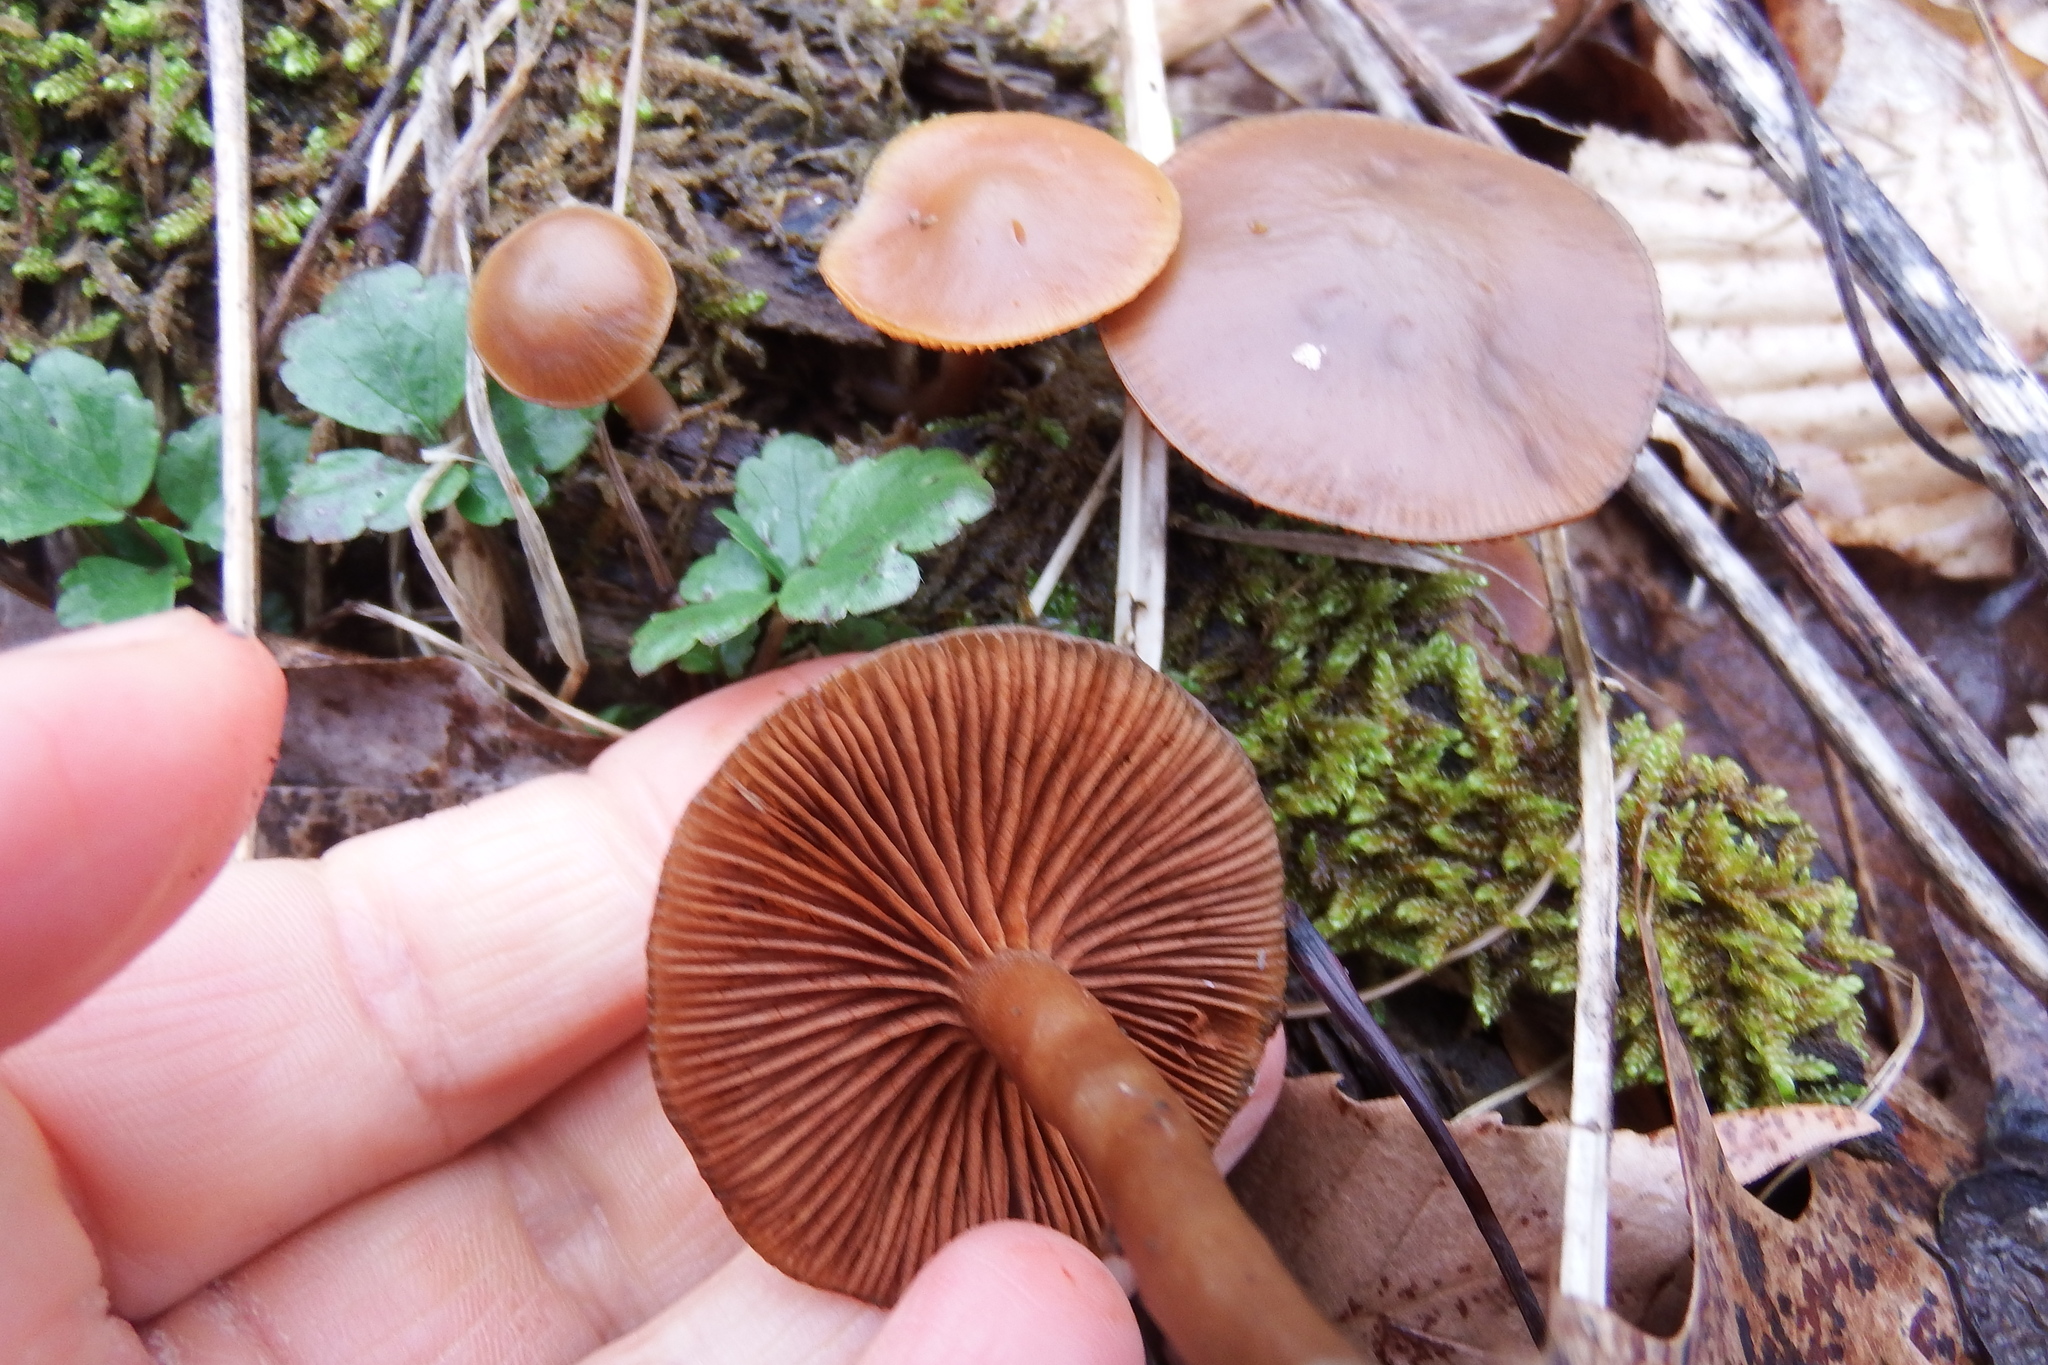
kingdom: Fungi
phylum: Basidiomycota
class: Agaricomycetes
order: Agaricales
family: Hymenogastraceae
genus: Galerina
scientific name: Galerina marginata
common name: Funeral bell
